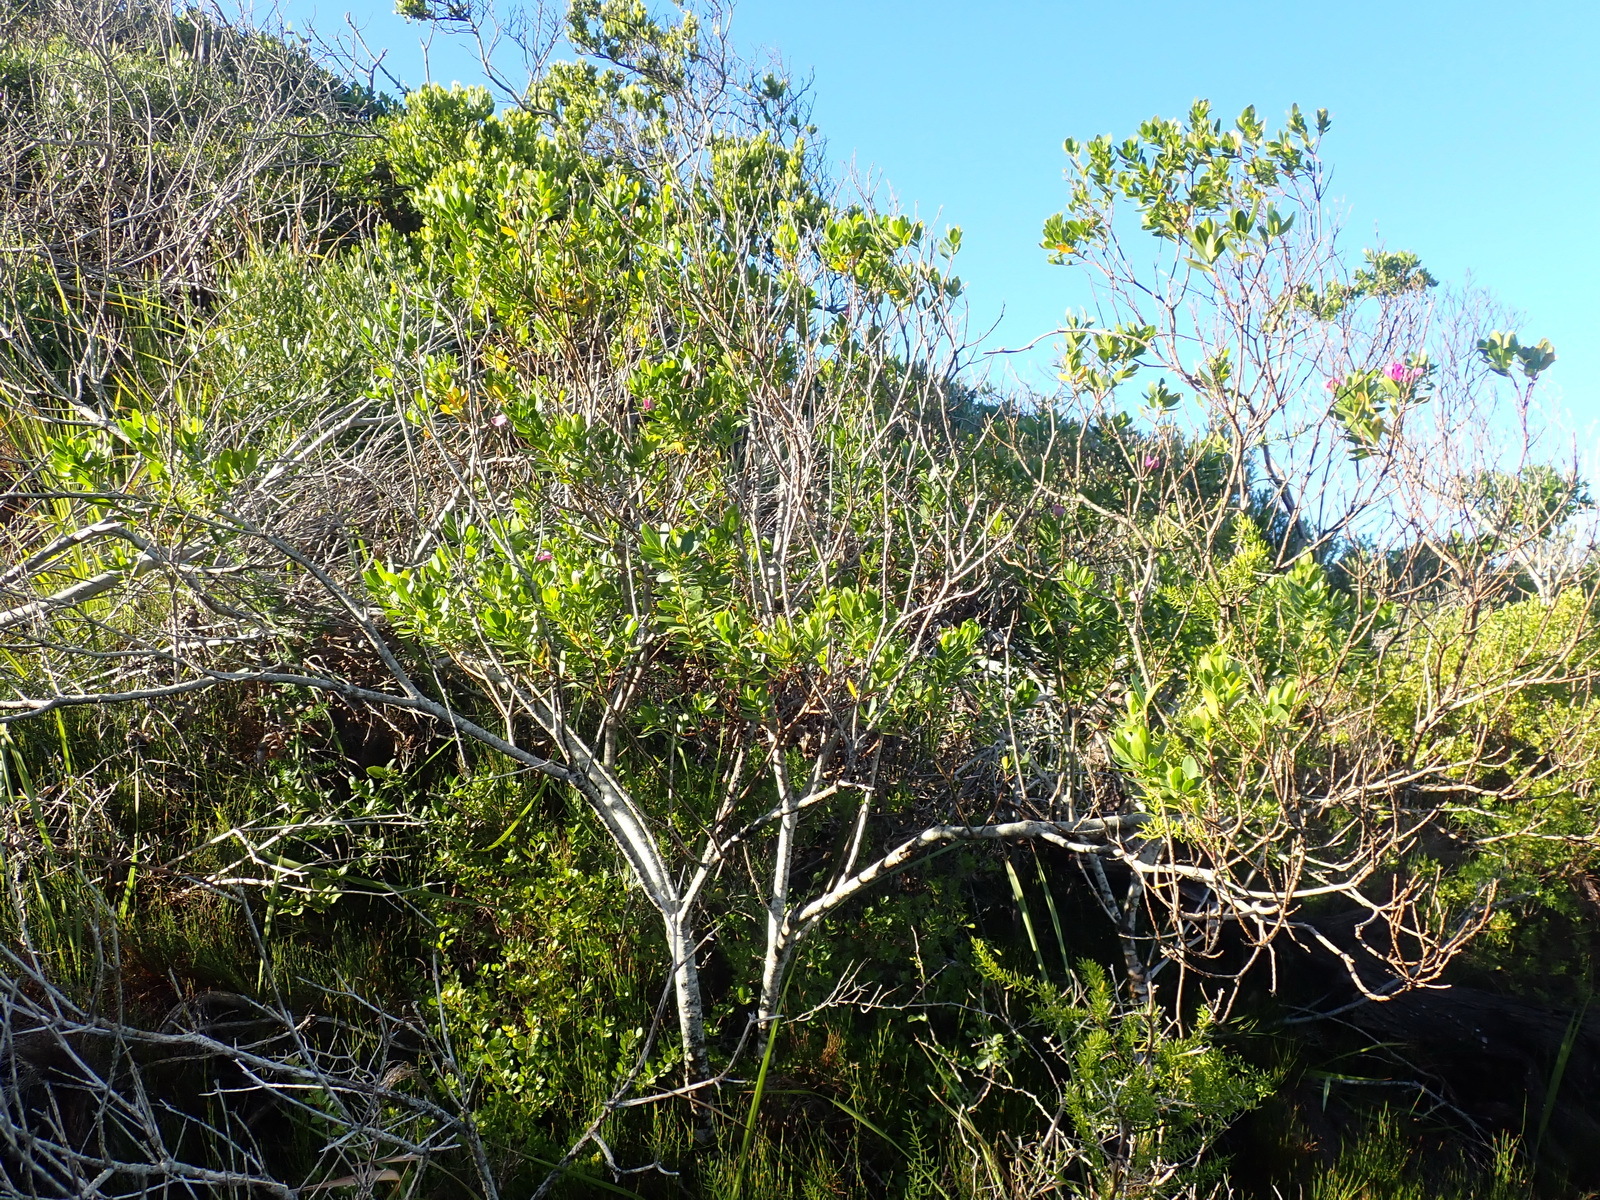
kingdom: Plantae
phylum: Tracheophyta
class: Magnoliopsida
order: Fabales
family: Polygalaceae
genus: Polygala
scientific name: Polygala myrtifolia
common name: Myrtle-leaf milkwort
